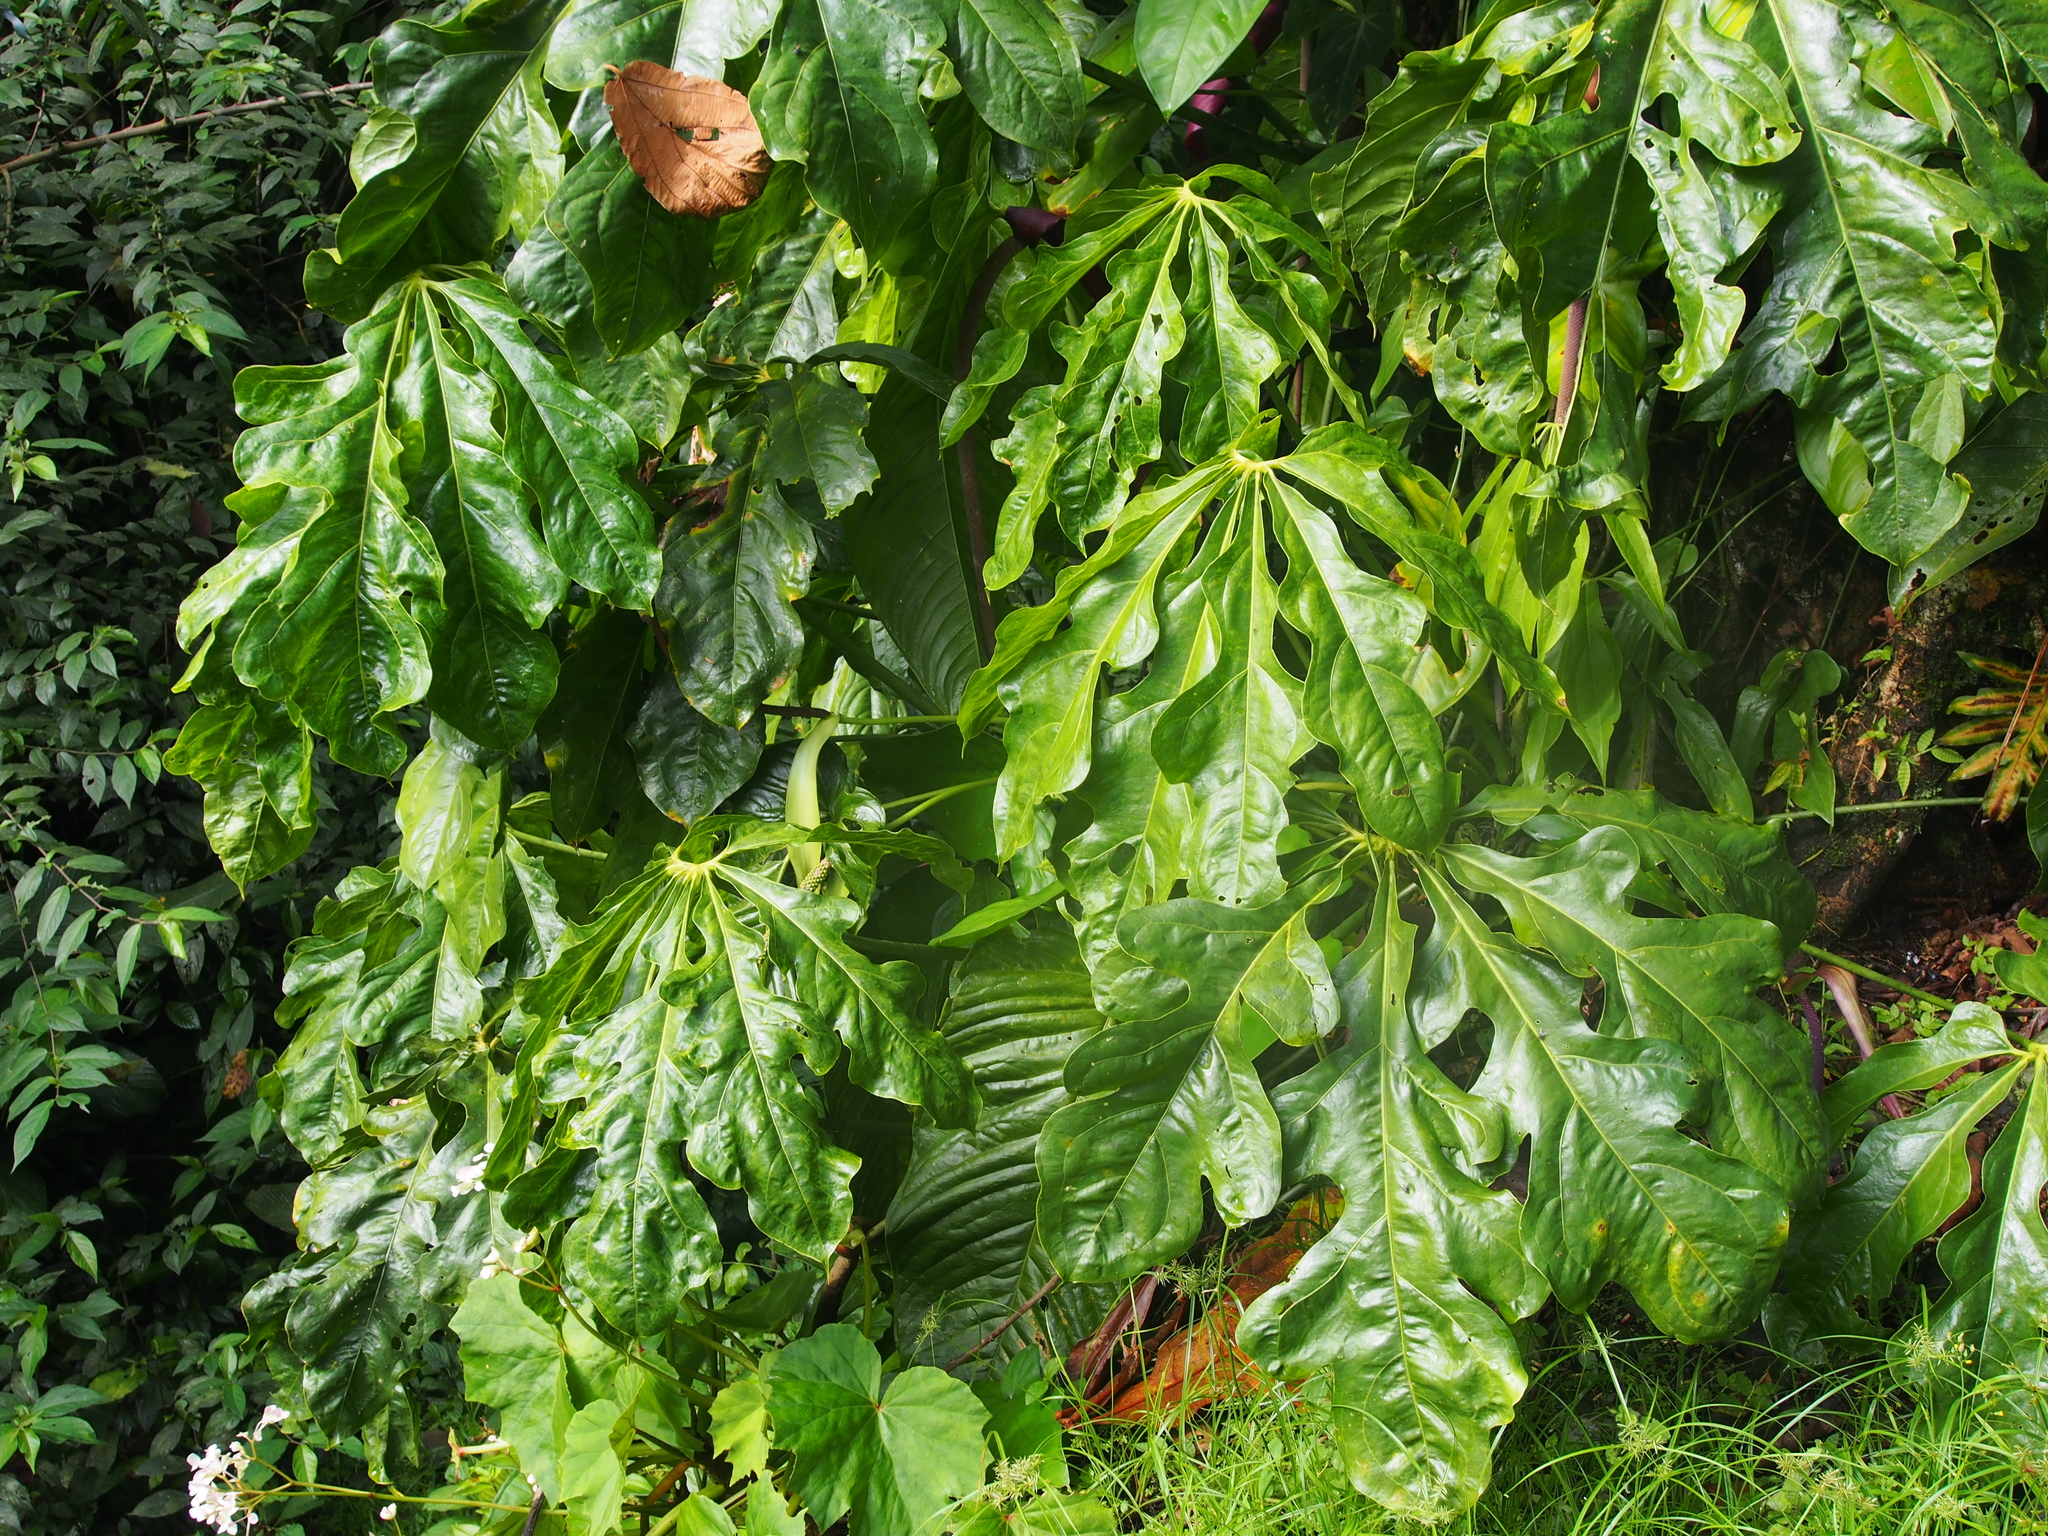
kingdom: Plantae
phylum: Tracheophyta
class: Liliopsida
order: Alismatales
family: Araceae
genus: Anthurium
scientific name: Anthurium clavigerum
